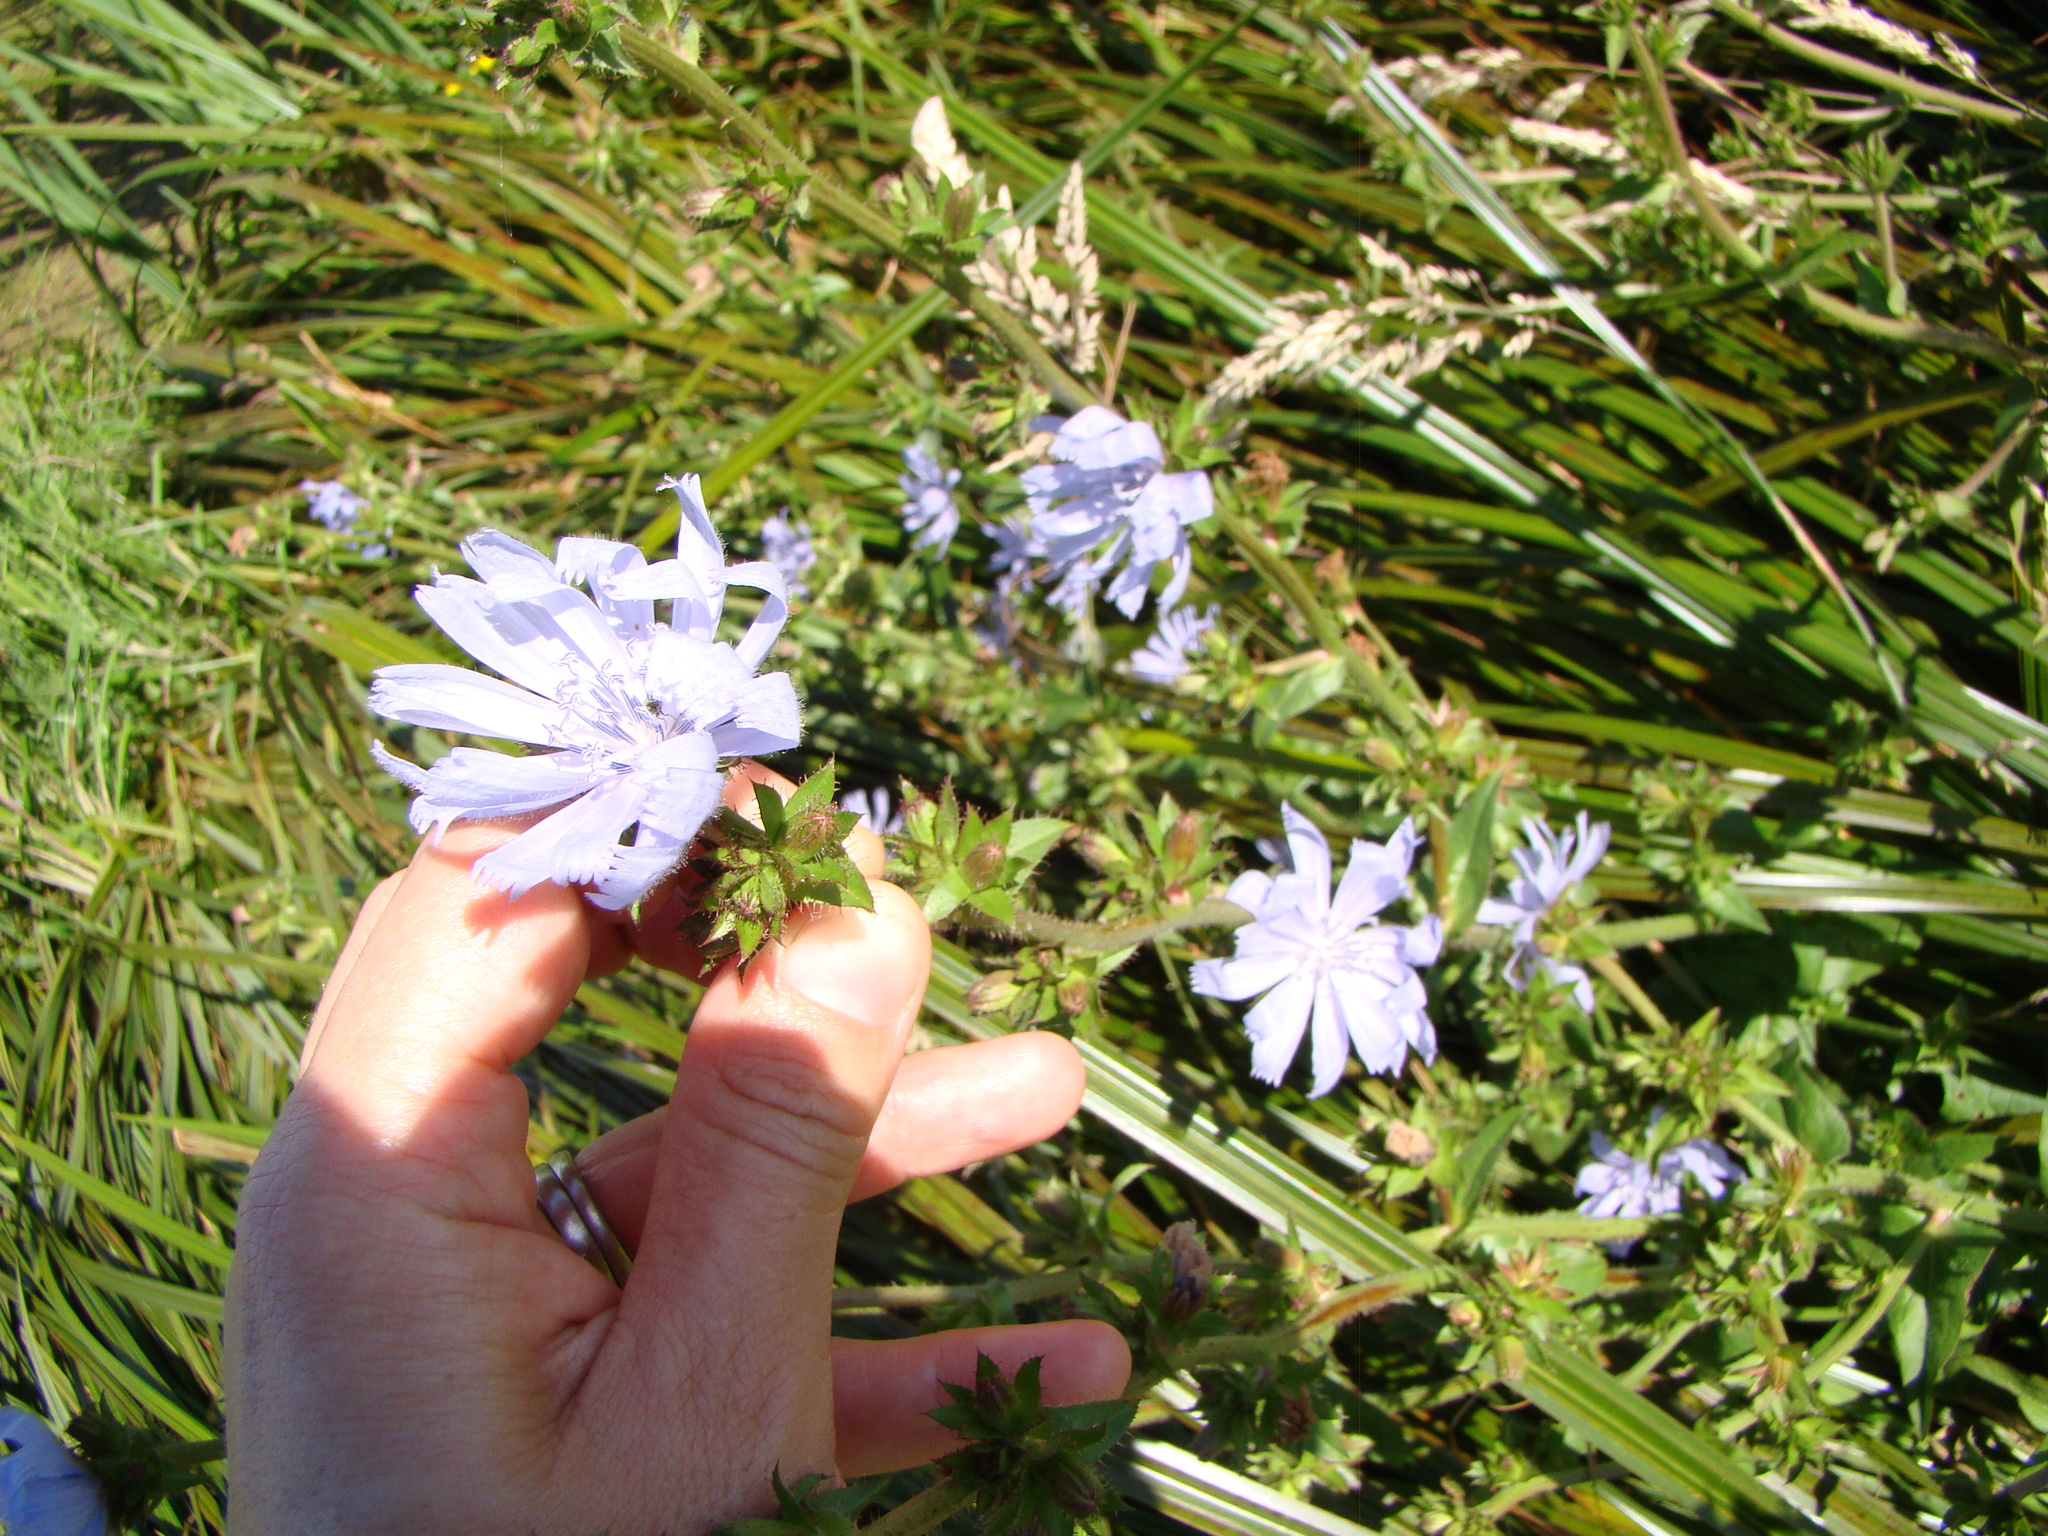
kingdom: Plantae
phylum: Tracheophyta
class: Magnoliopsida
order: Asterales
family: Asteraceae
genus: Cichorium
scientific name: Cichorium intybus
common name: Chicory
